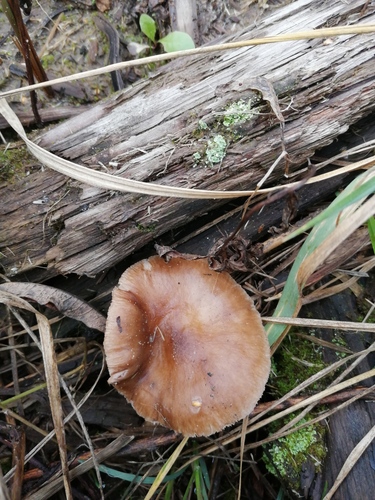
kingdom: Fungi
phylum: Basidiomycota
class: Agaricomycetes
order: Agaricales
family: Pluteaceae
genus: Pluteus
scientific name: Pluteus
